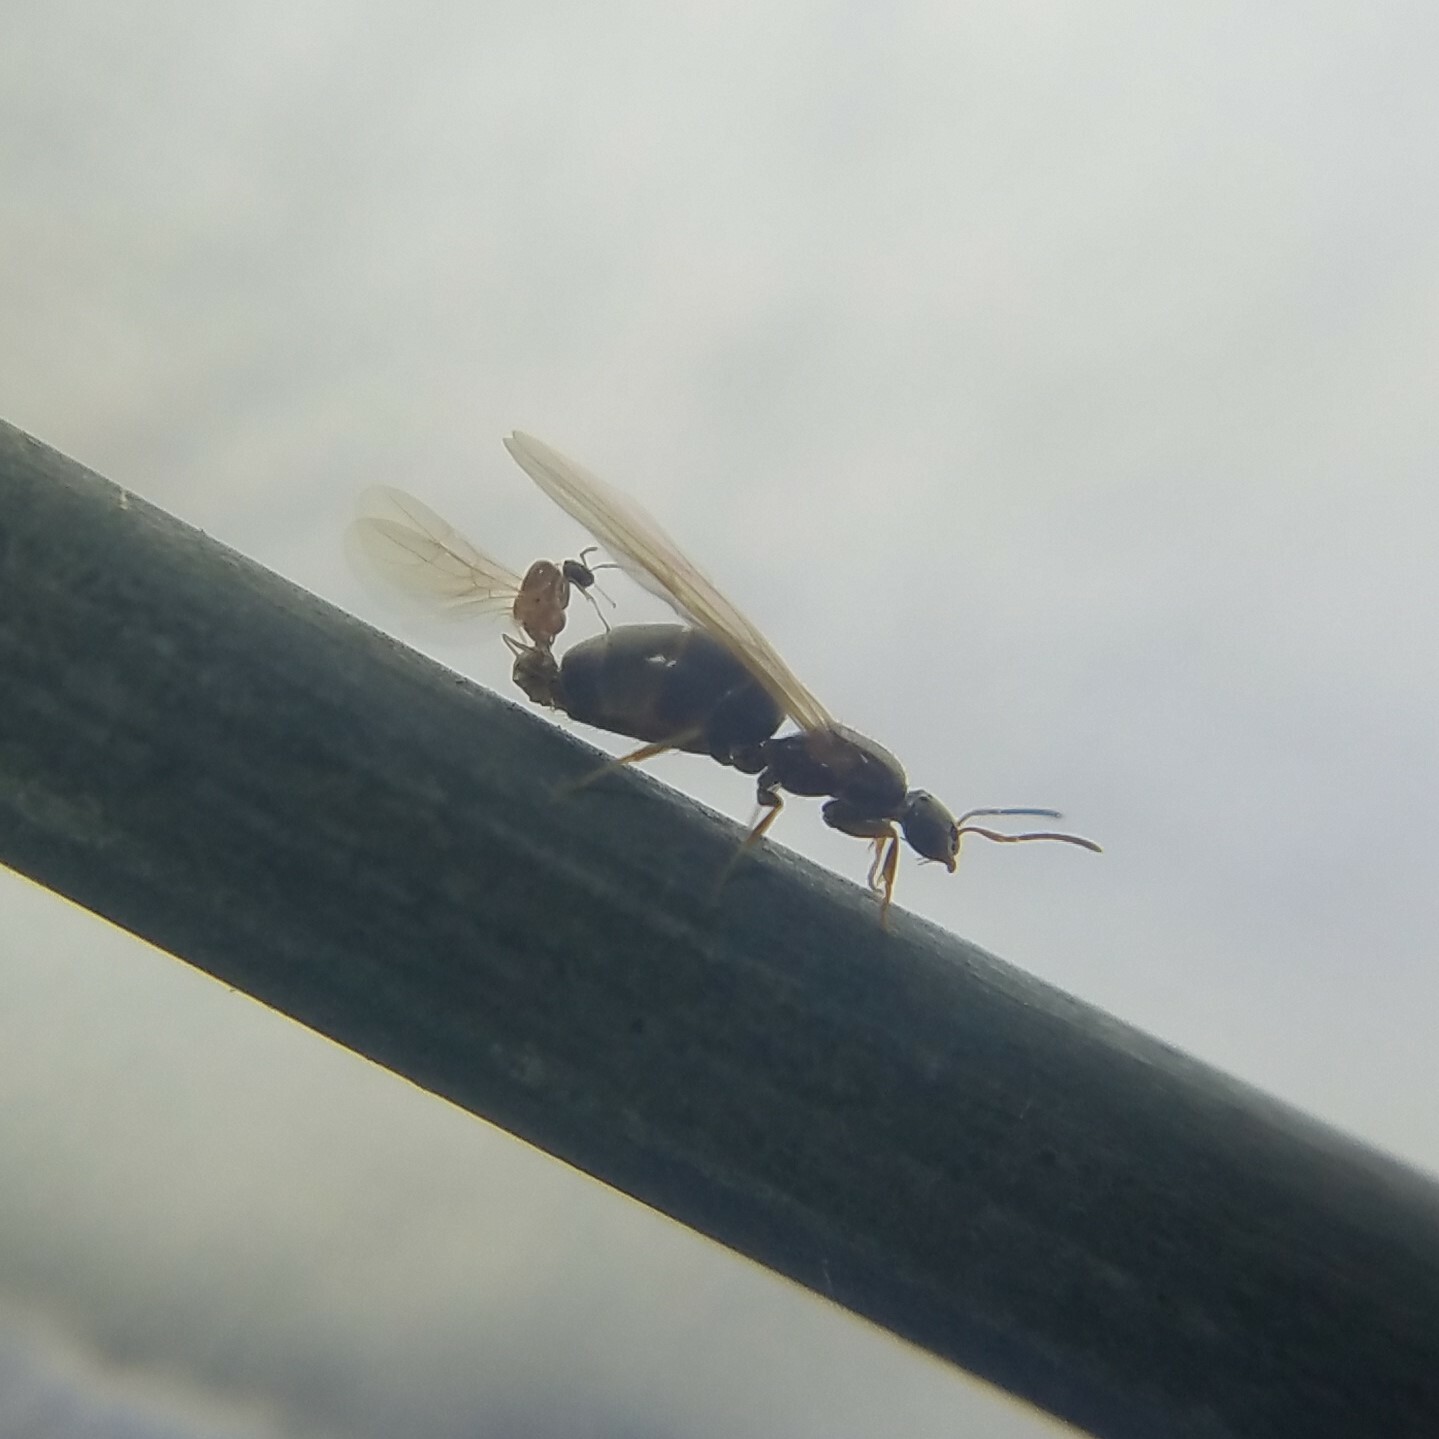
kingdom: Animalia
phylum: Arthropoda
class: Insecta
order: Hymenoptera
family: Formicidae
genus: Brachymyrmex
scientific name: Brachymyrmex patagonicus
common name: Dark rover ant
